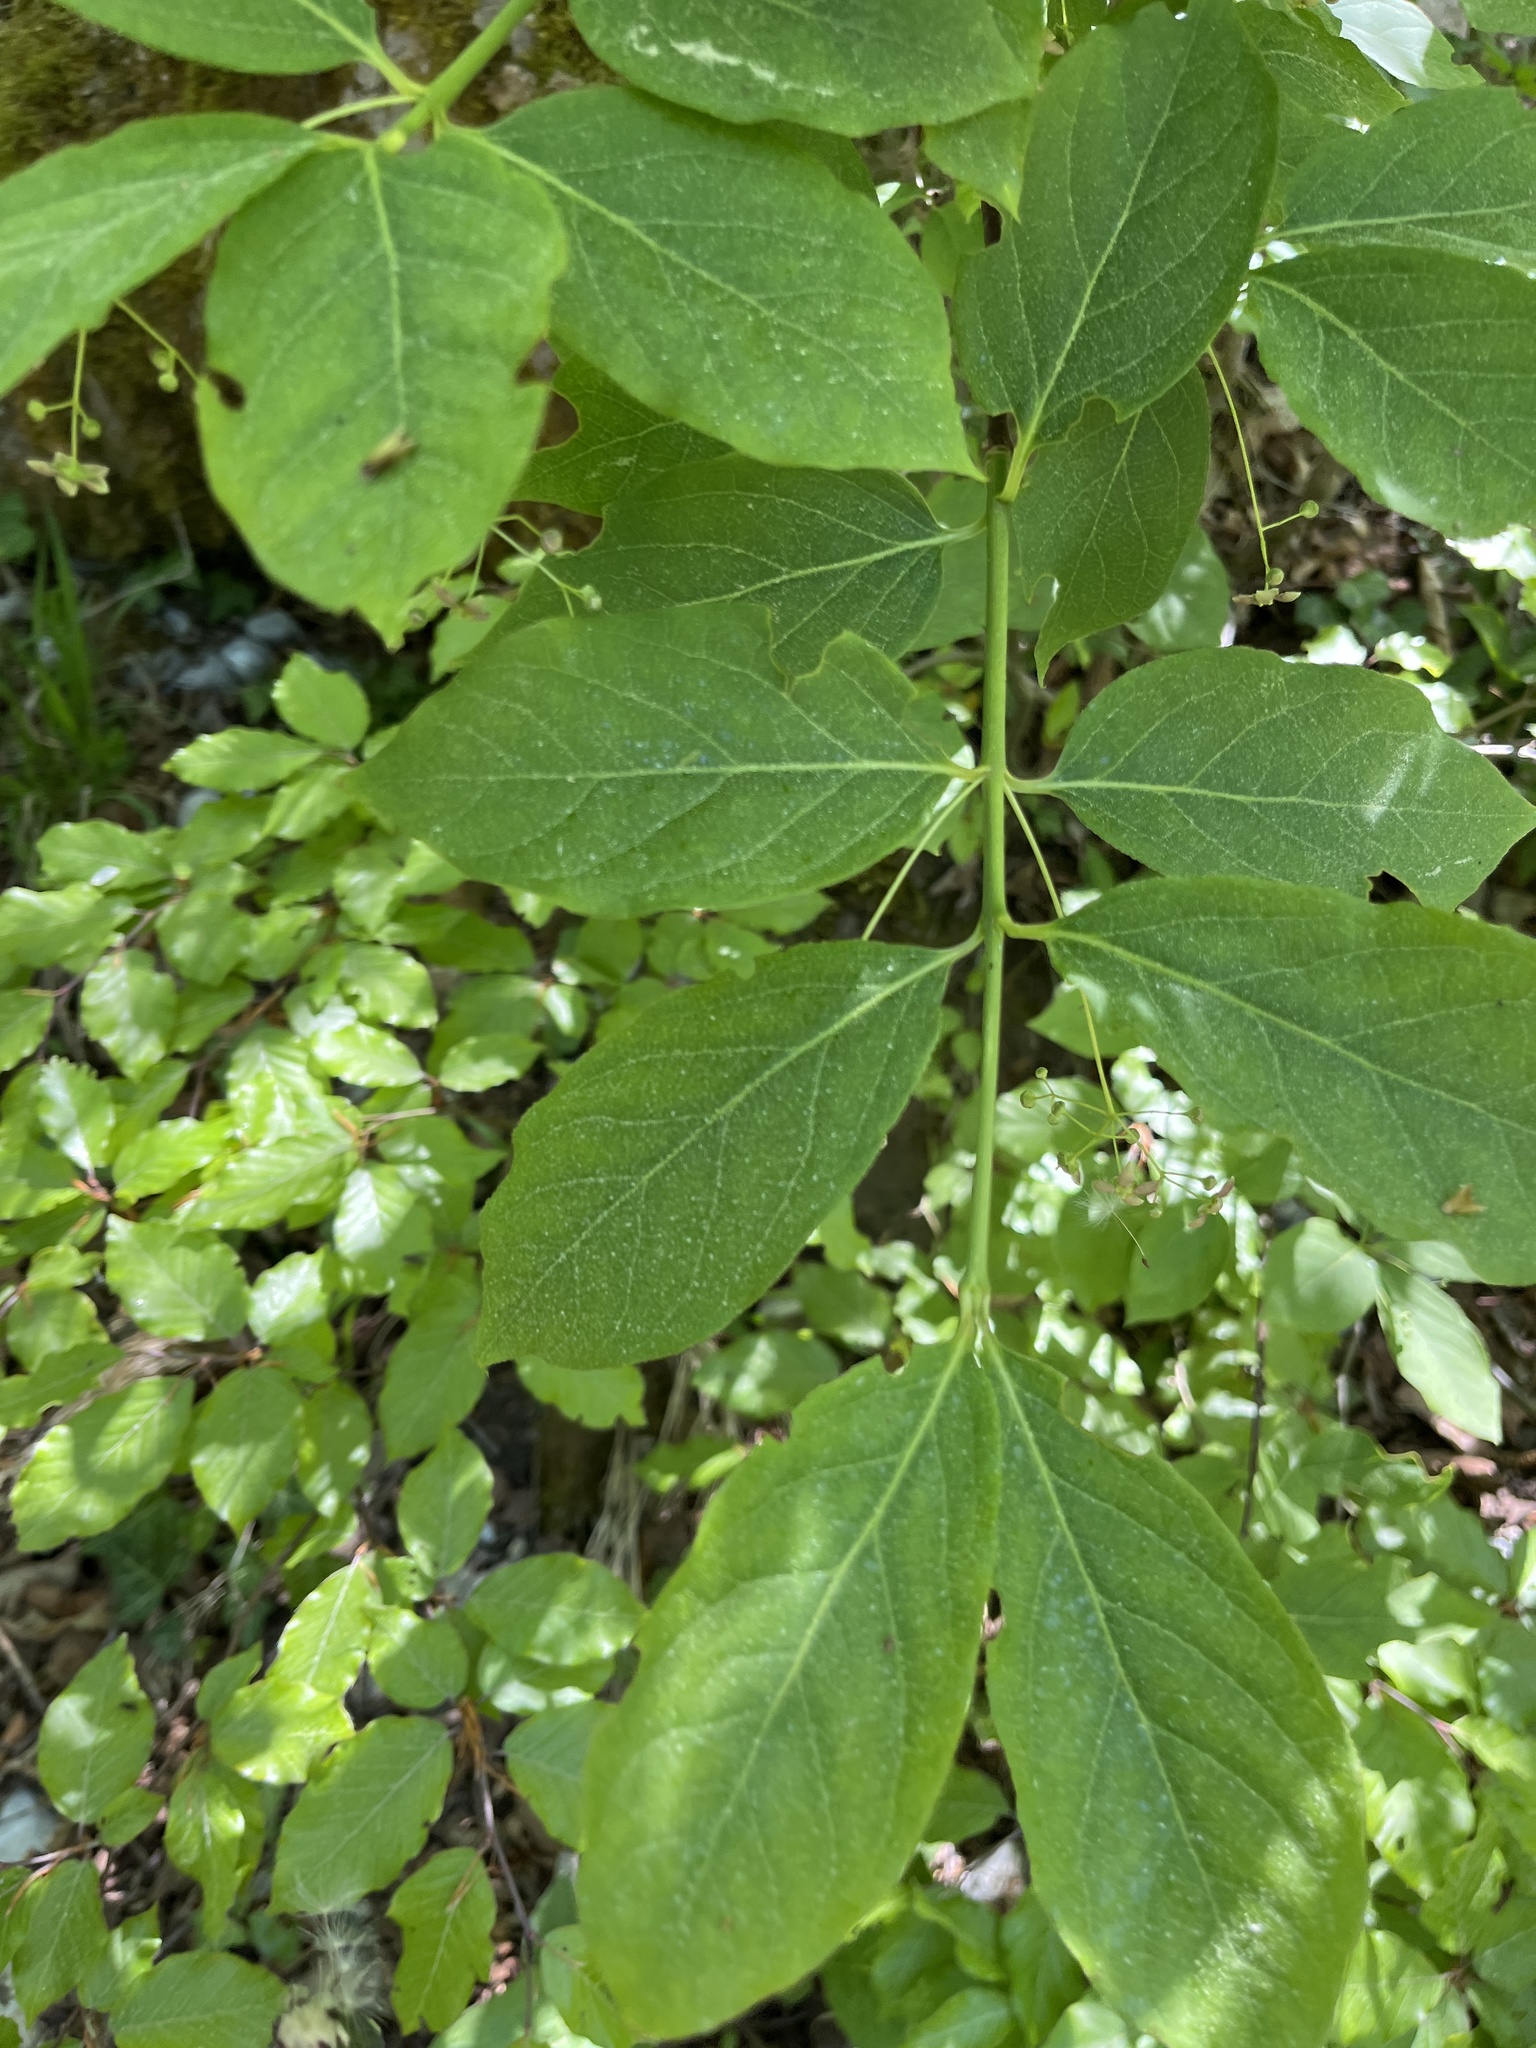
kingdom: Plantae
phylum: Tracheophyta
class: Magnoliopsida
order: Celastrales
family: Celastraceae
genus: Euonymus
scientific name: Euonymus verrucosus
